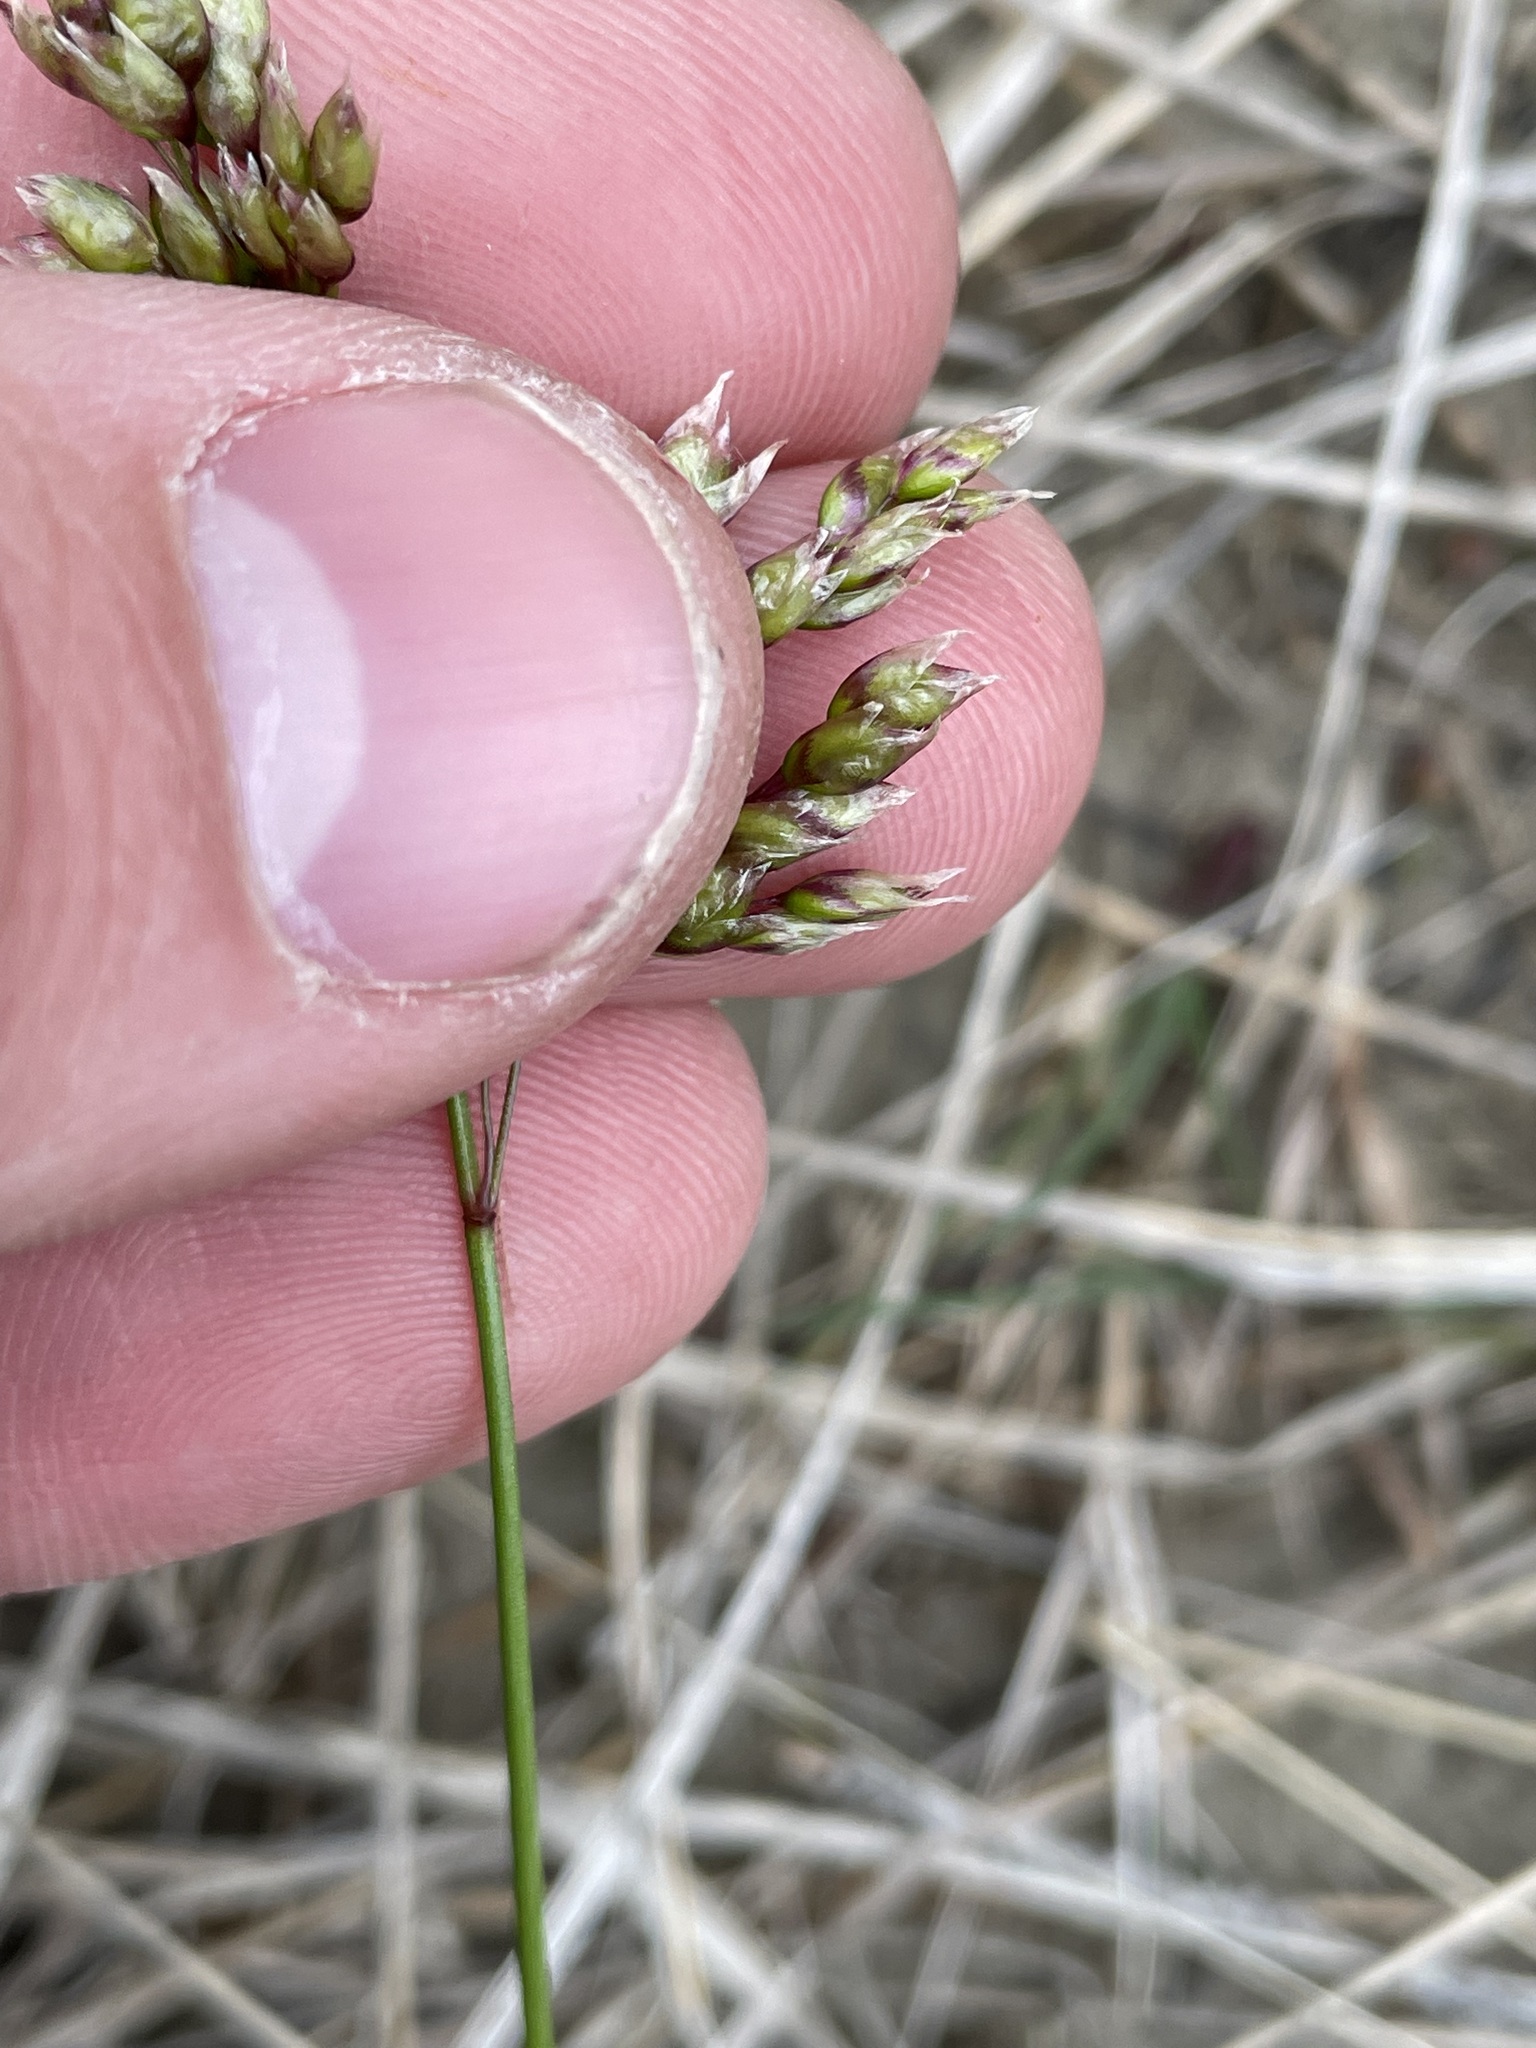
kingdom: Plantae
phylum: Tracheophyta
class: Liliopsida
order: Poales
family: Poaceae
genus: Anthoxanthum
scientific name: Anthoxanthum nitens
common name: Holy grass
